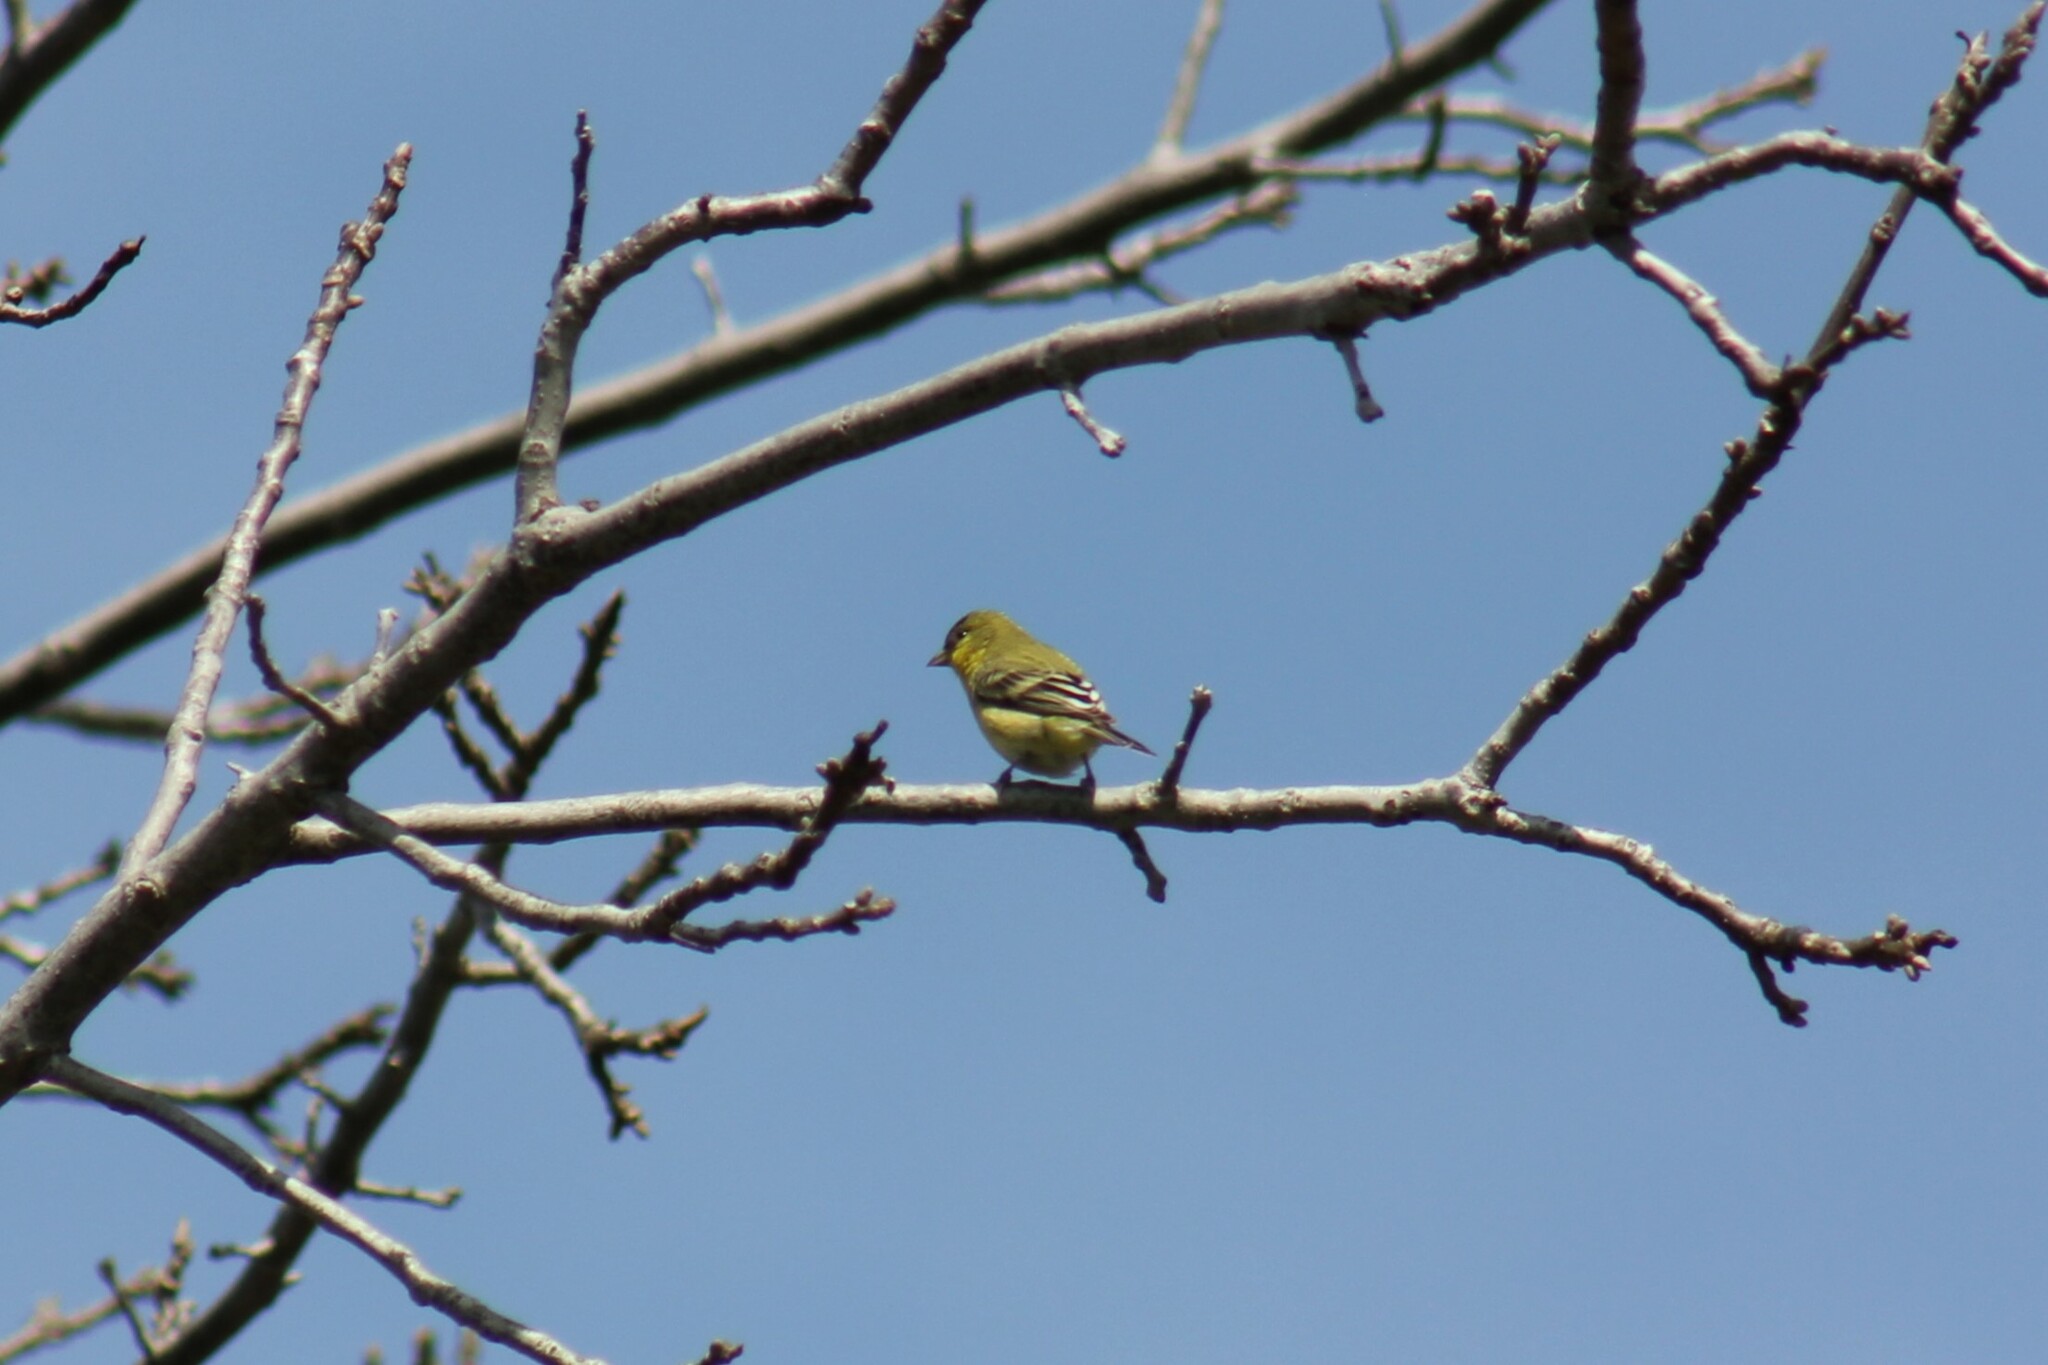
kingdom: Animalia
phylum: Chordata
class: Aves
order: Passeriformes
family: Fringillidae
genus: Spinus
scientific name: Spinus psaltria
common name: Lesser goldfinch
